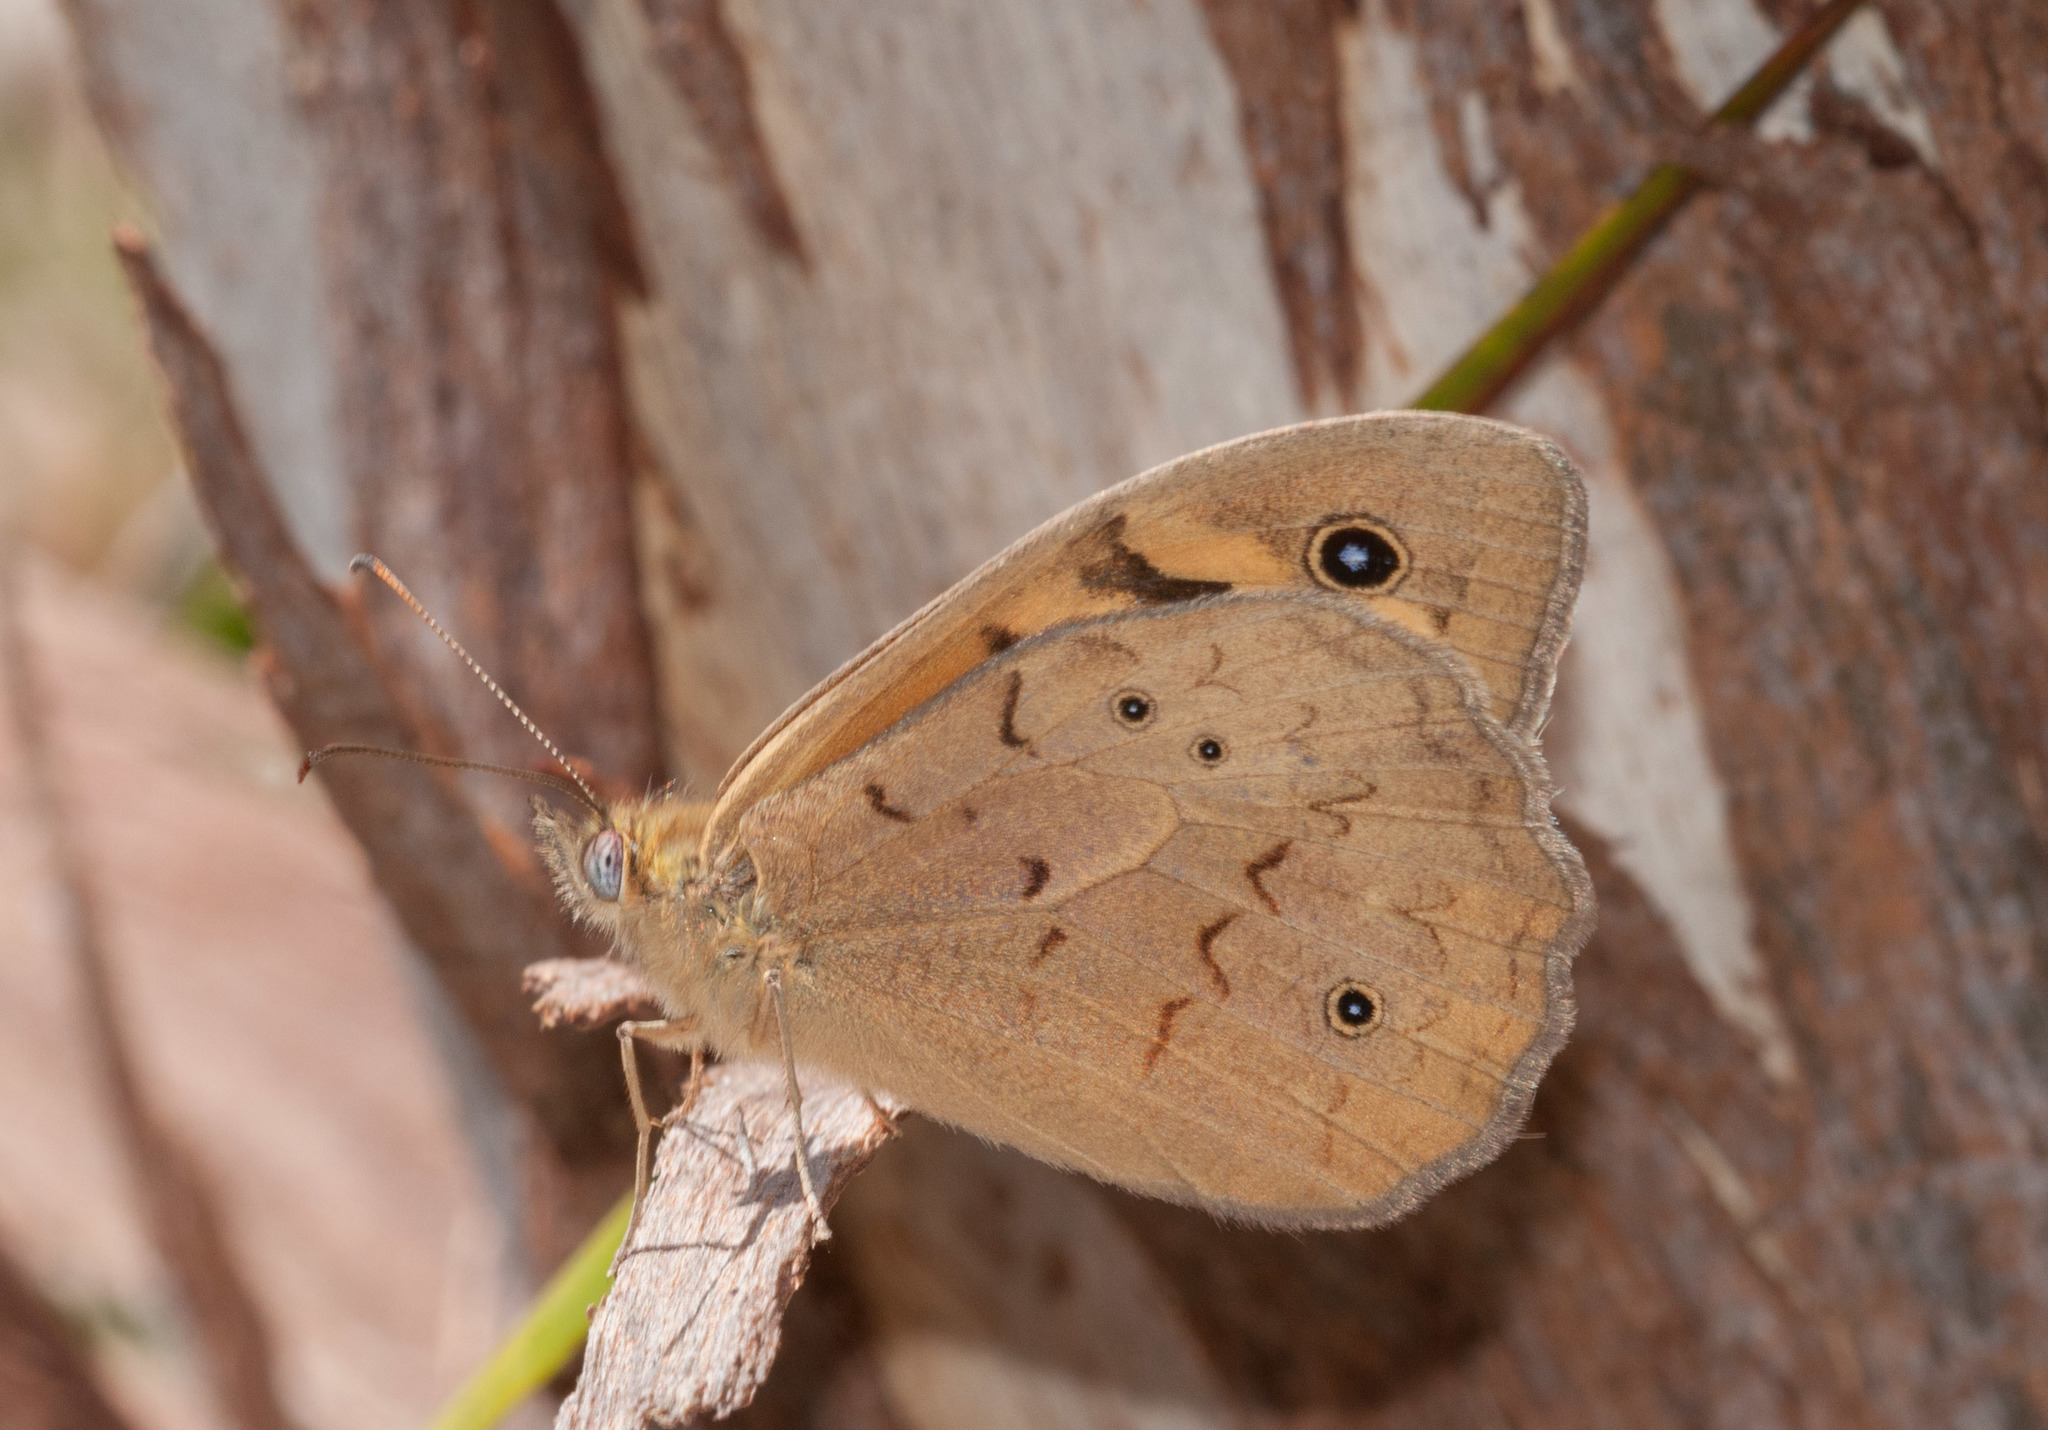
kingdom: Animalia
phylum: Arthropoda
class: Insecta
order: Lepidoptera
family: Nymphalidae
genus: Heteronympha
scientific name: Heteronympha merope
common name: Common brown
